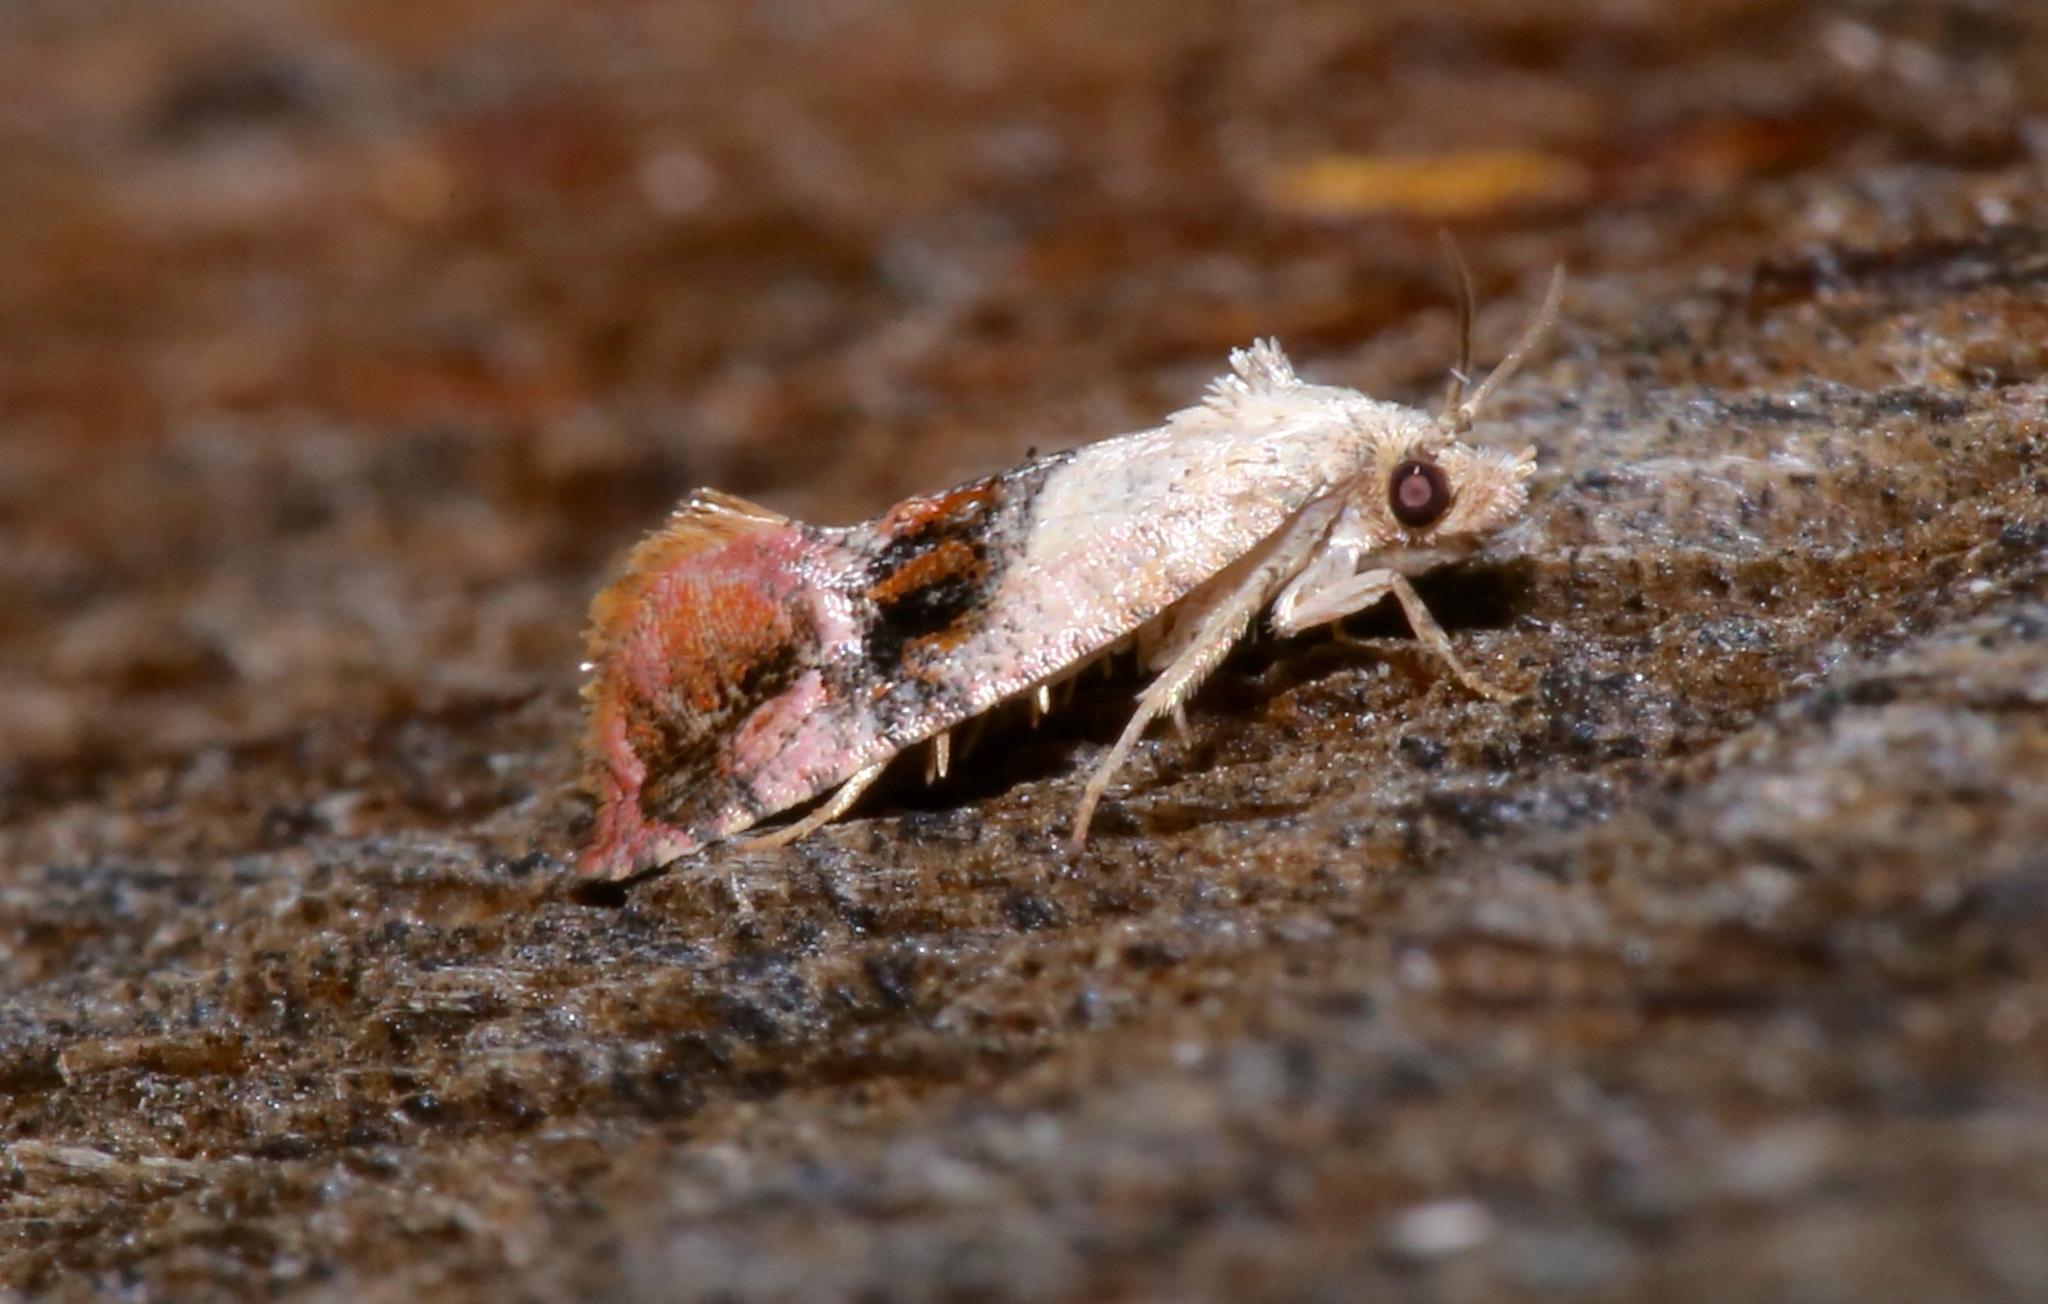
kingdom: Animalia
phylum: Arthropoda
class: Insecta
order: Lepidoptera
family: Tortricidae
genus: Thyraylia
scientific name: Thyraylia hollandana
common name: Holland's cochylid moth
